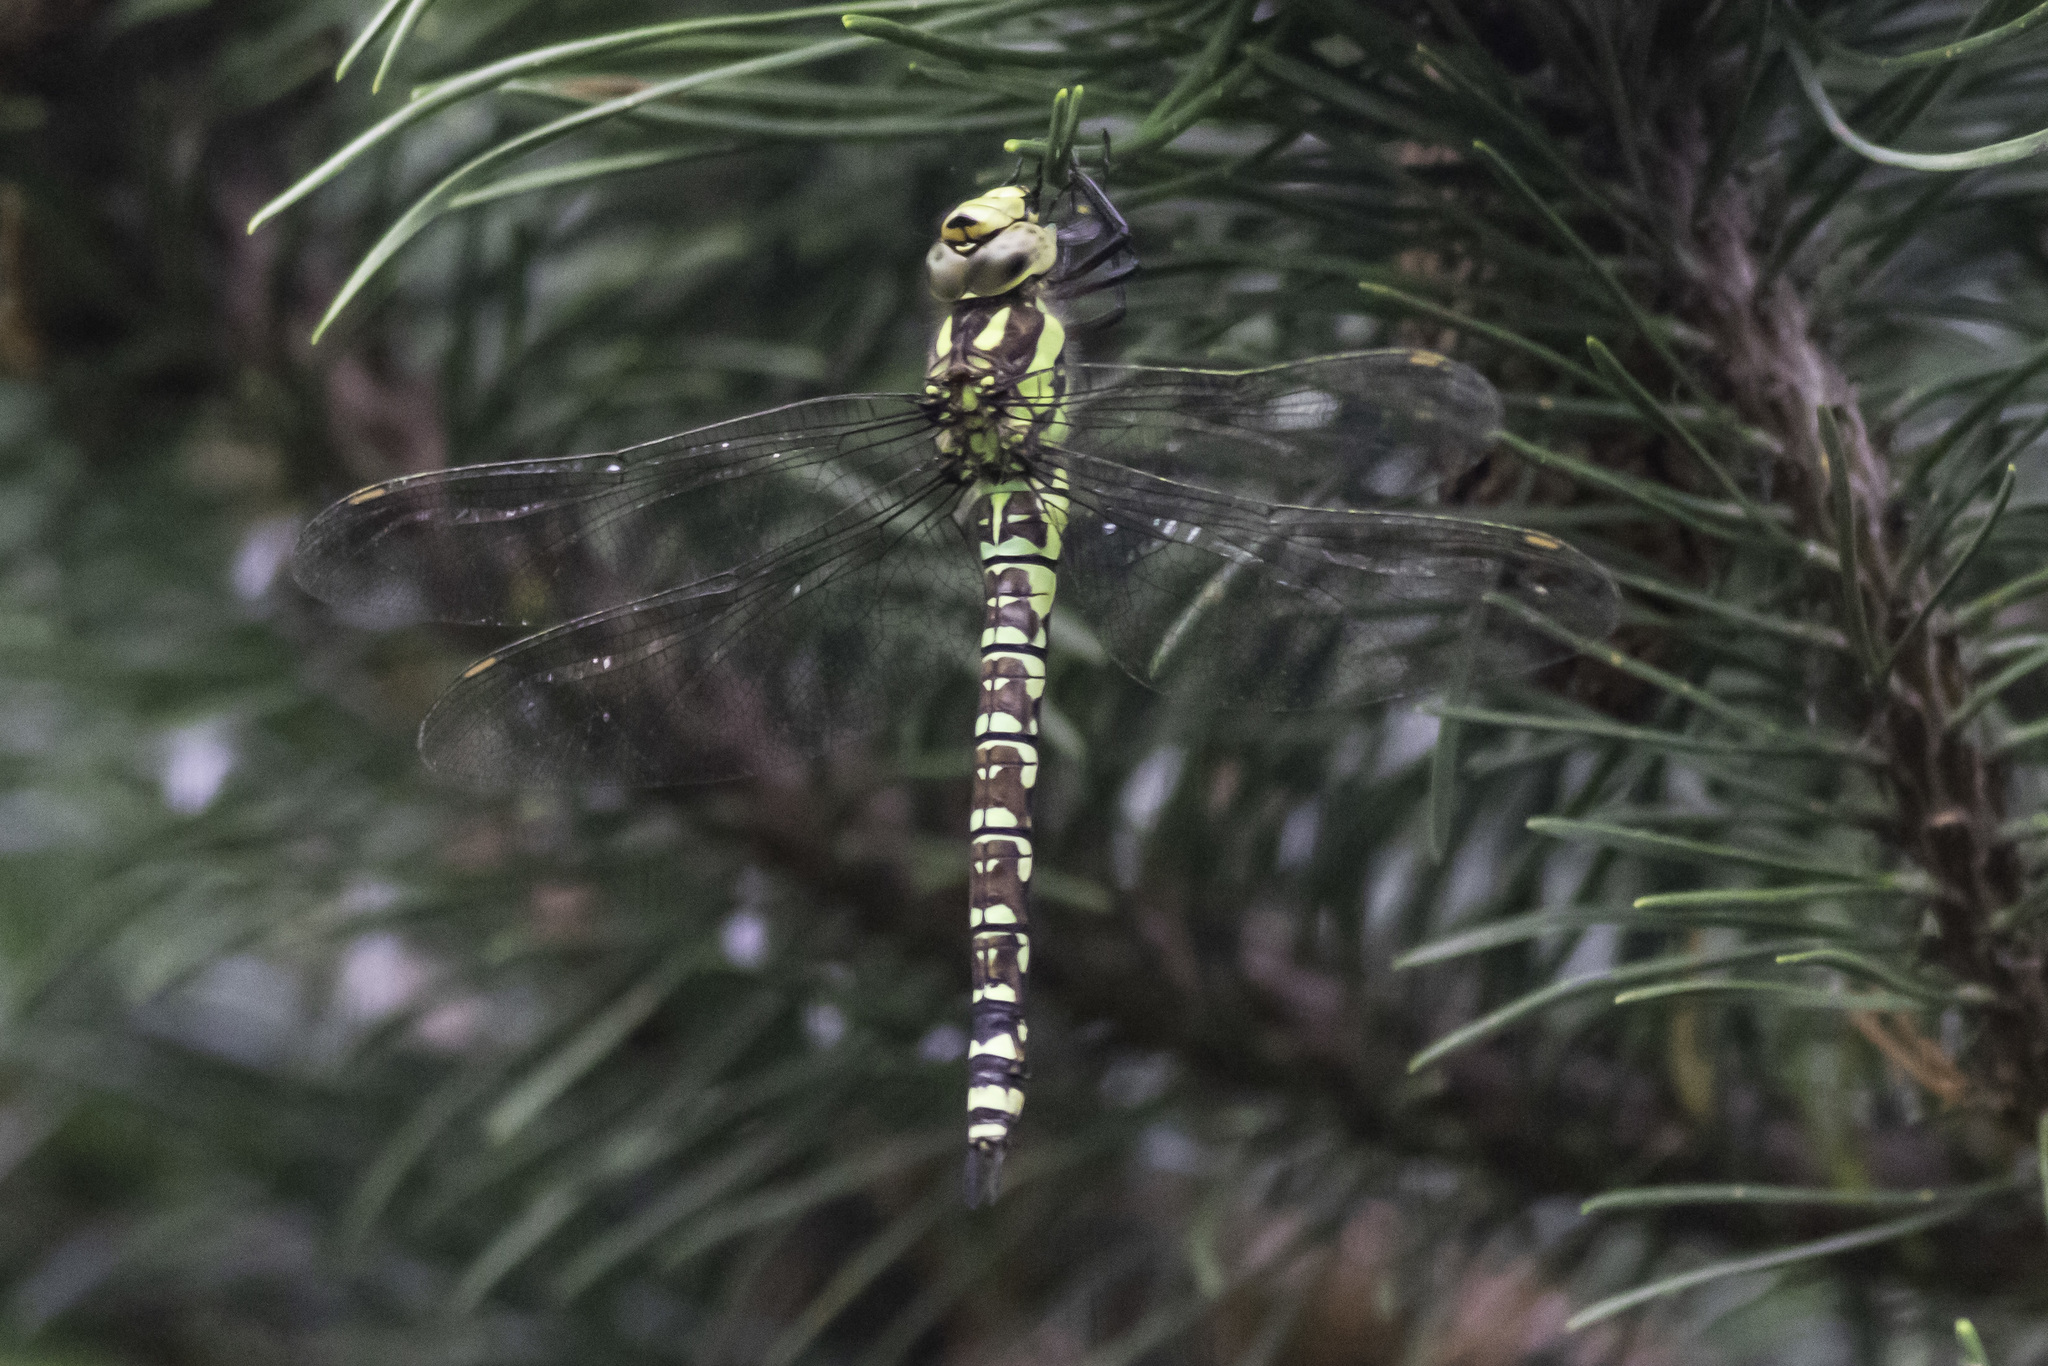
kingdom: Animalia
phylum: Arthropoda
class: Insecta
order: Odonata
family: Aeshnidae
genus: Aeshna
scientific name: Aeshna cyanea
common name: Southern hawker
